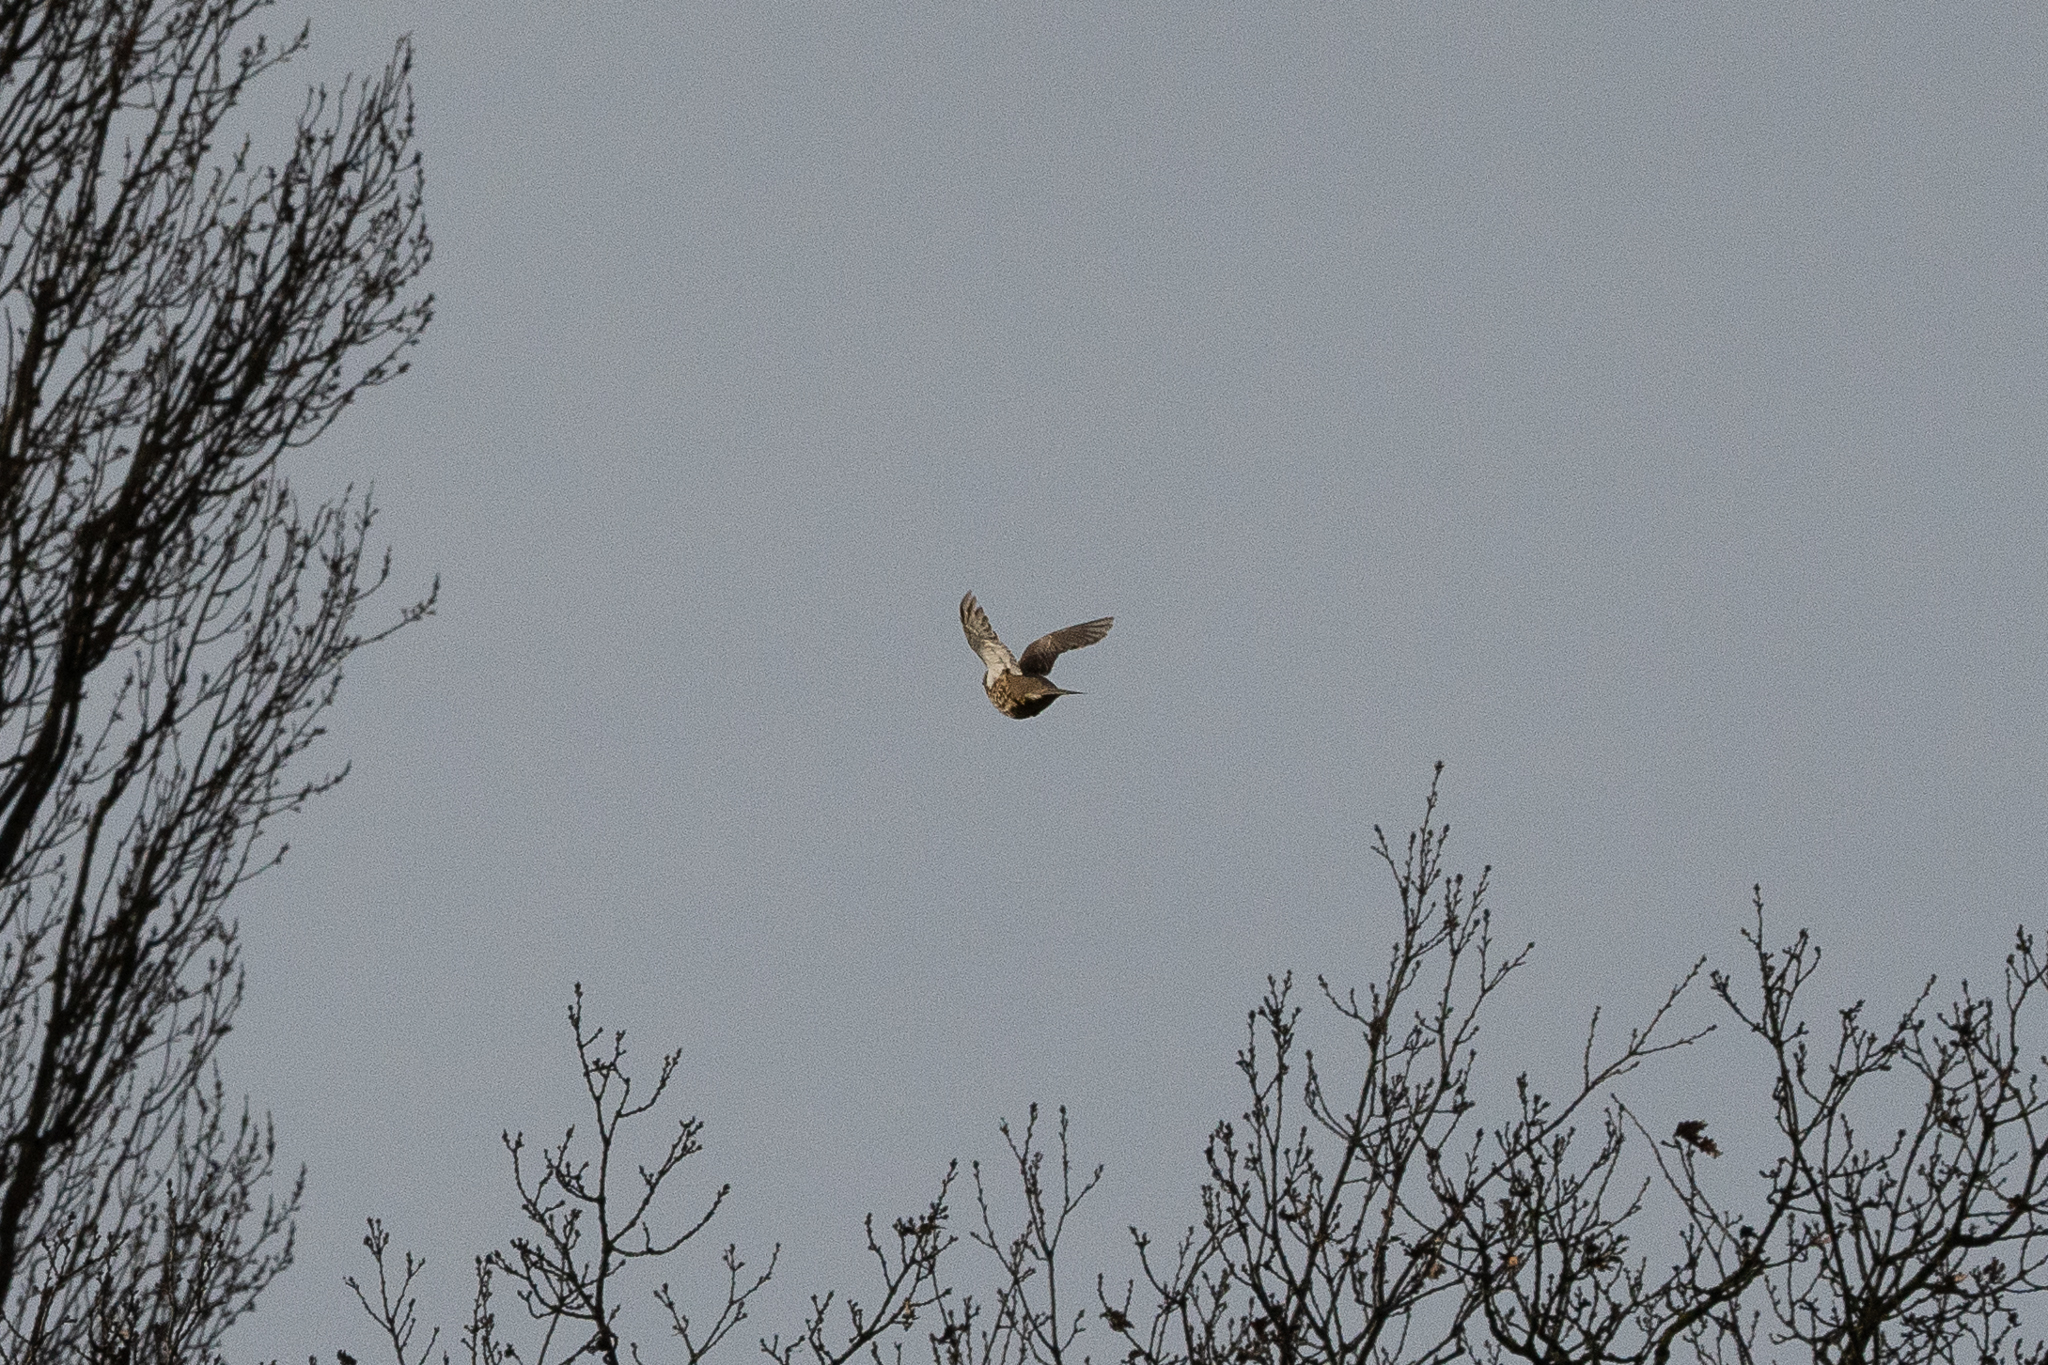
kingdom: Animalia
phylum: Chordata
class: Aves
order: Passeriformes
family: Turdidae
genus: Turdus
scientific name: Turdus viscivorus
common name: Mistle thrush
